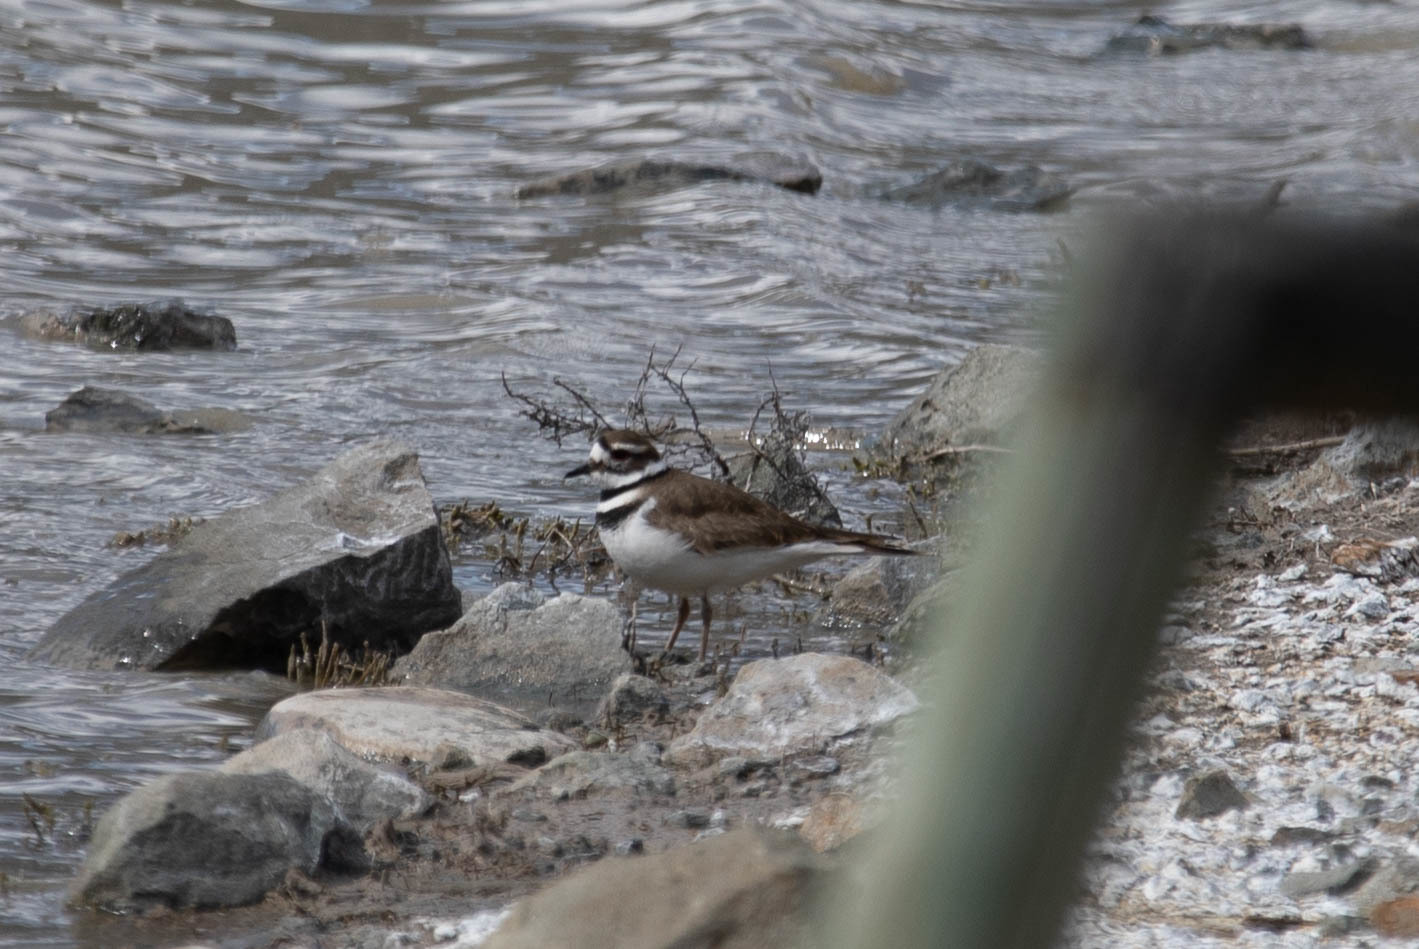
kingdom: Animalia
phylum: Chordata
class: Aves
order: Charadriiformes
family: Charadriidae
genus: Charadrius
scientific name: Charadrius vociferus
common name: Killdeer
